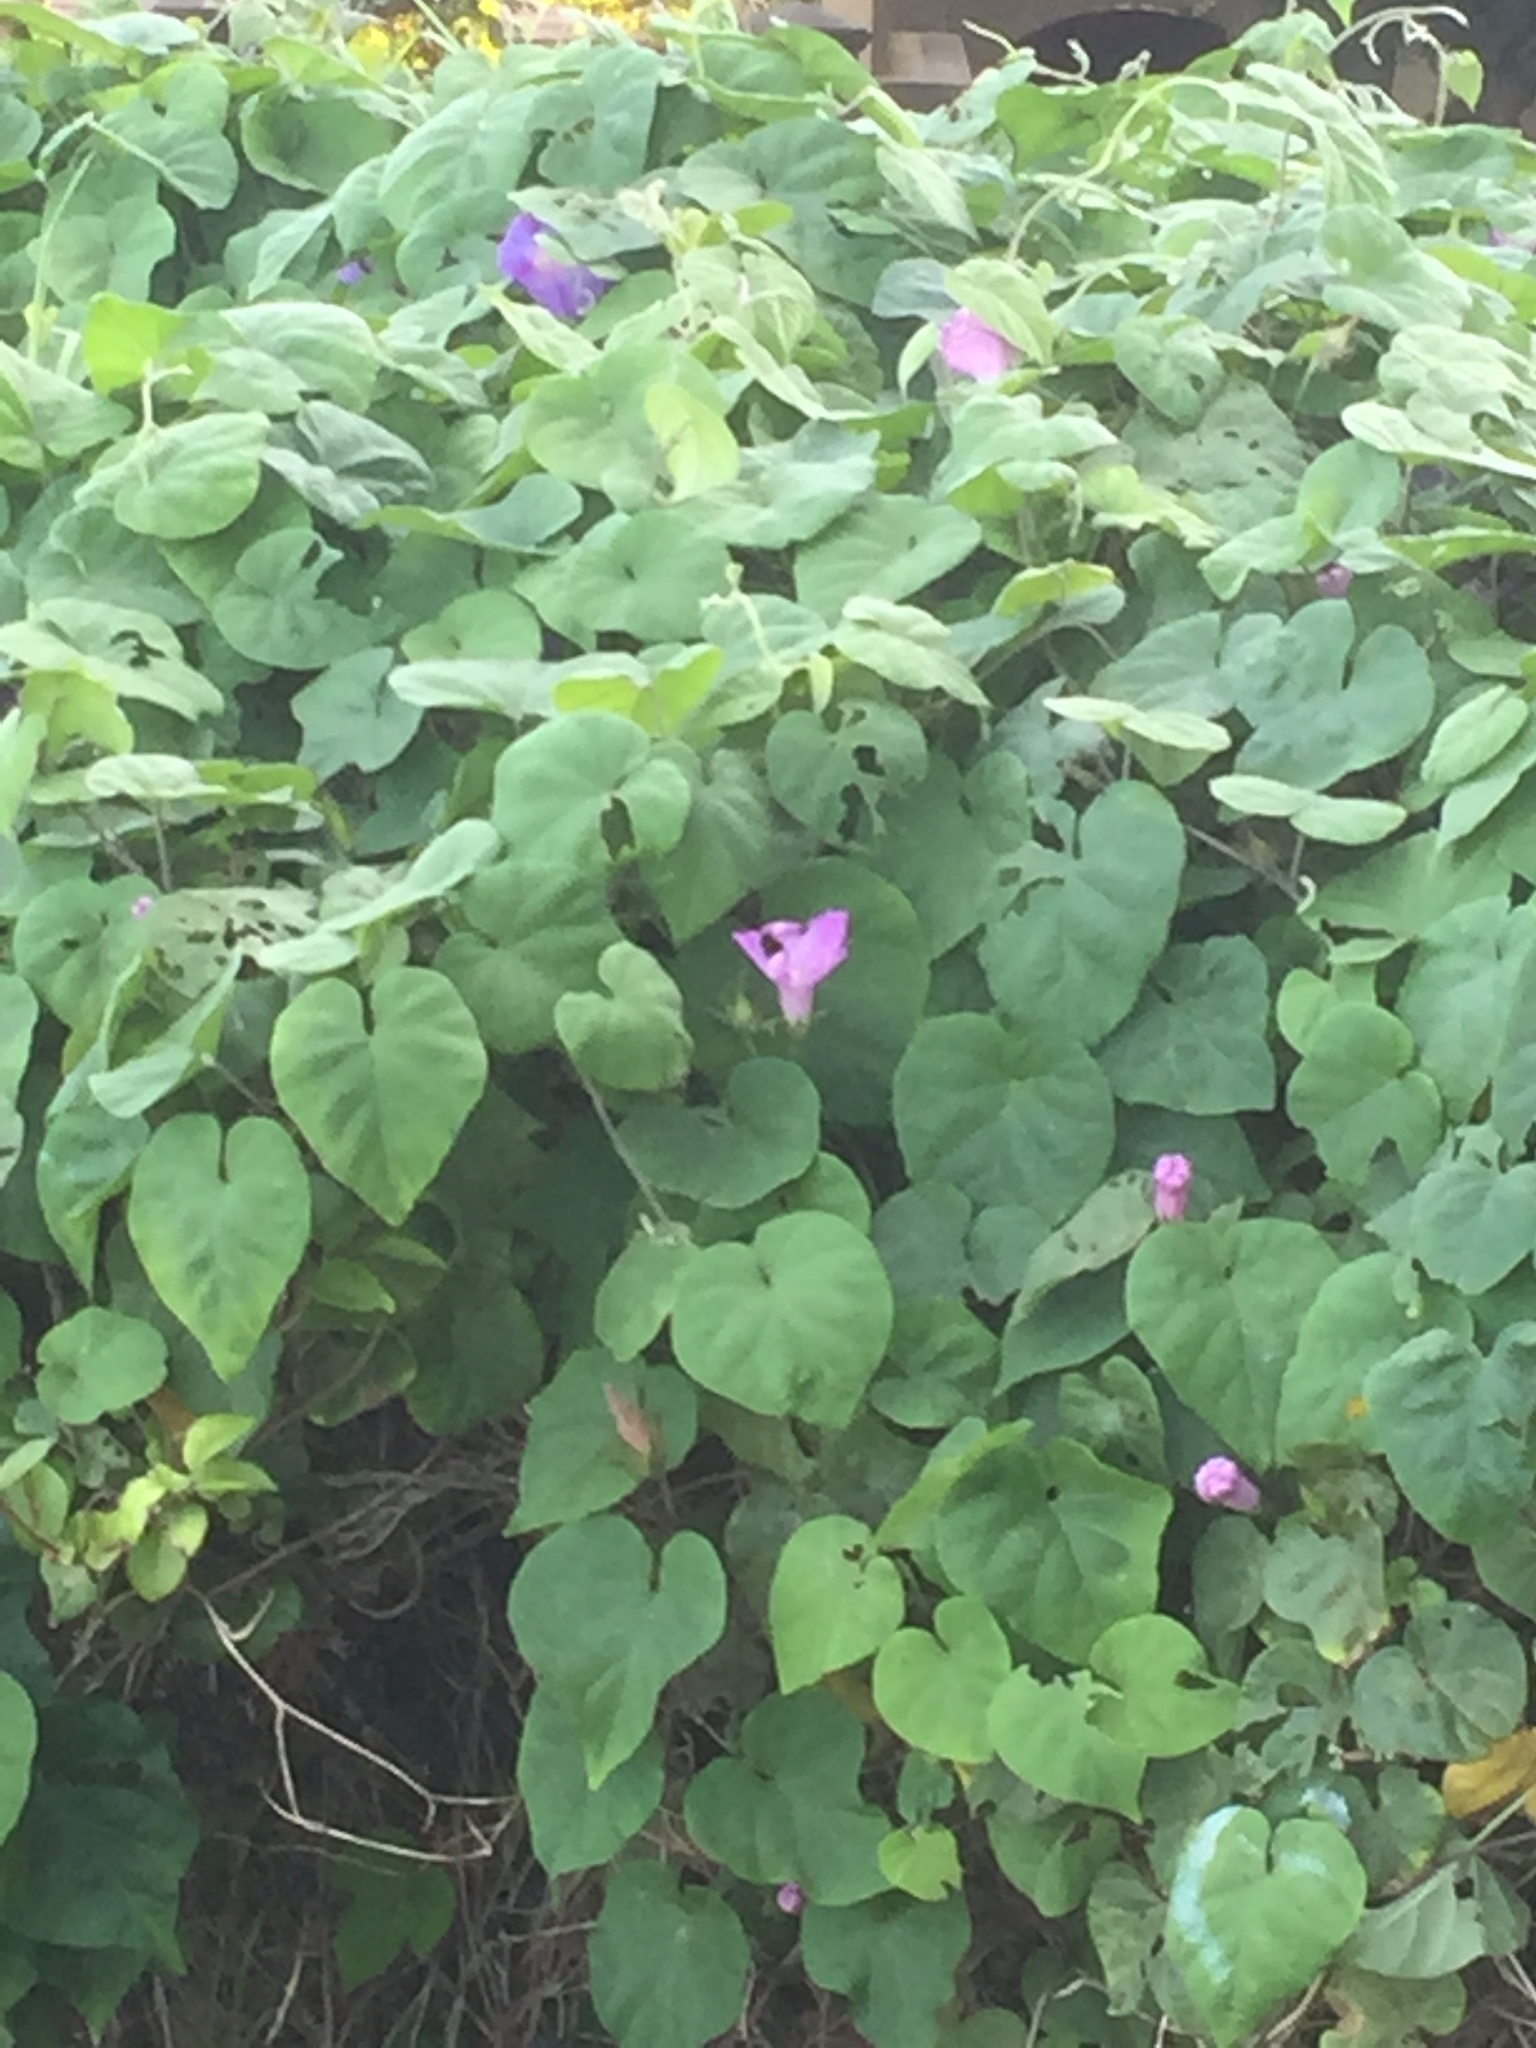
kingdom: Plantae
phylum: Tracheophyta
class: Magnoliopsida
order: Solanales
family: Convolvulaceae
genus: Ipomoea
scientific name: Ipomoea indica
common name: Blue dawnflower
